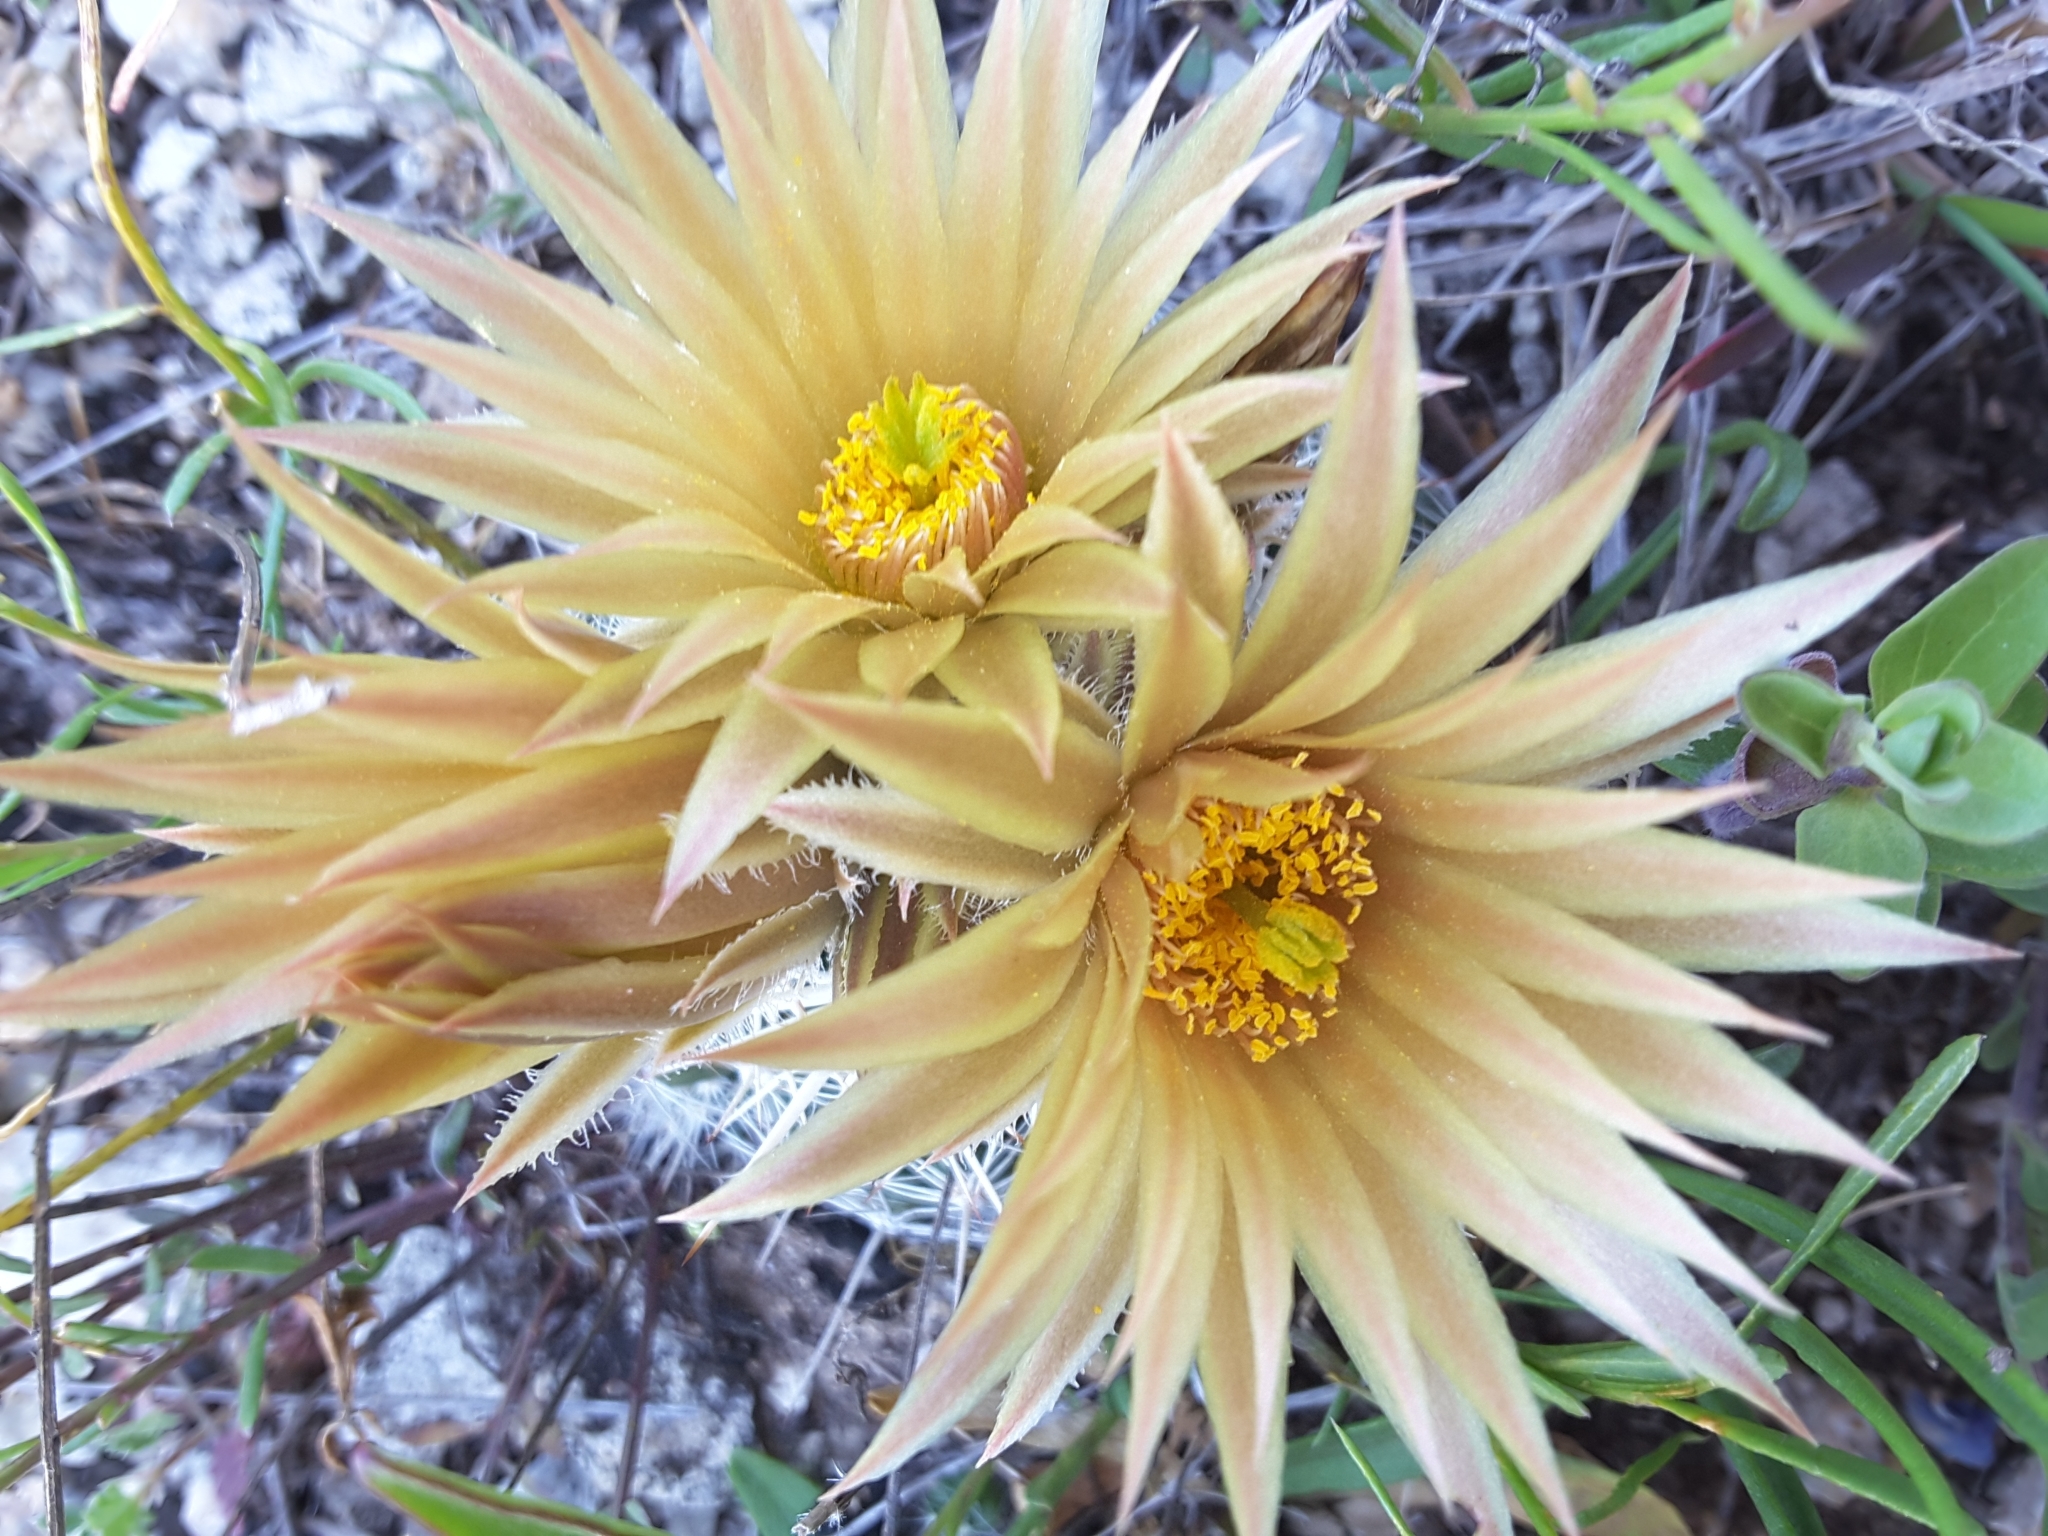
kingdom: Plantae
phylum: Tracheophyta
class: Magnoliopsida
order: Caryophyllales
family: Cactaceae
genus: Pelecyphora
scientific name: Pelecyphora missouriensis
